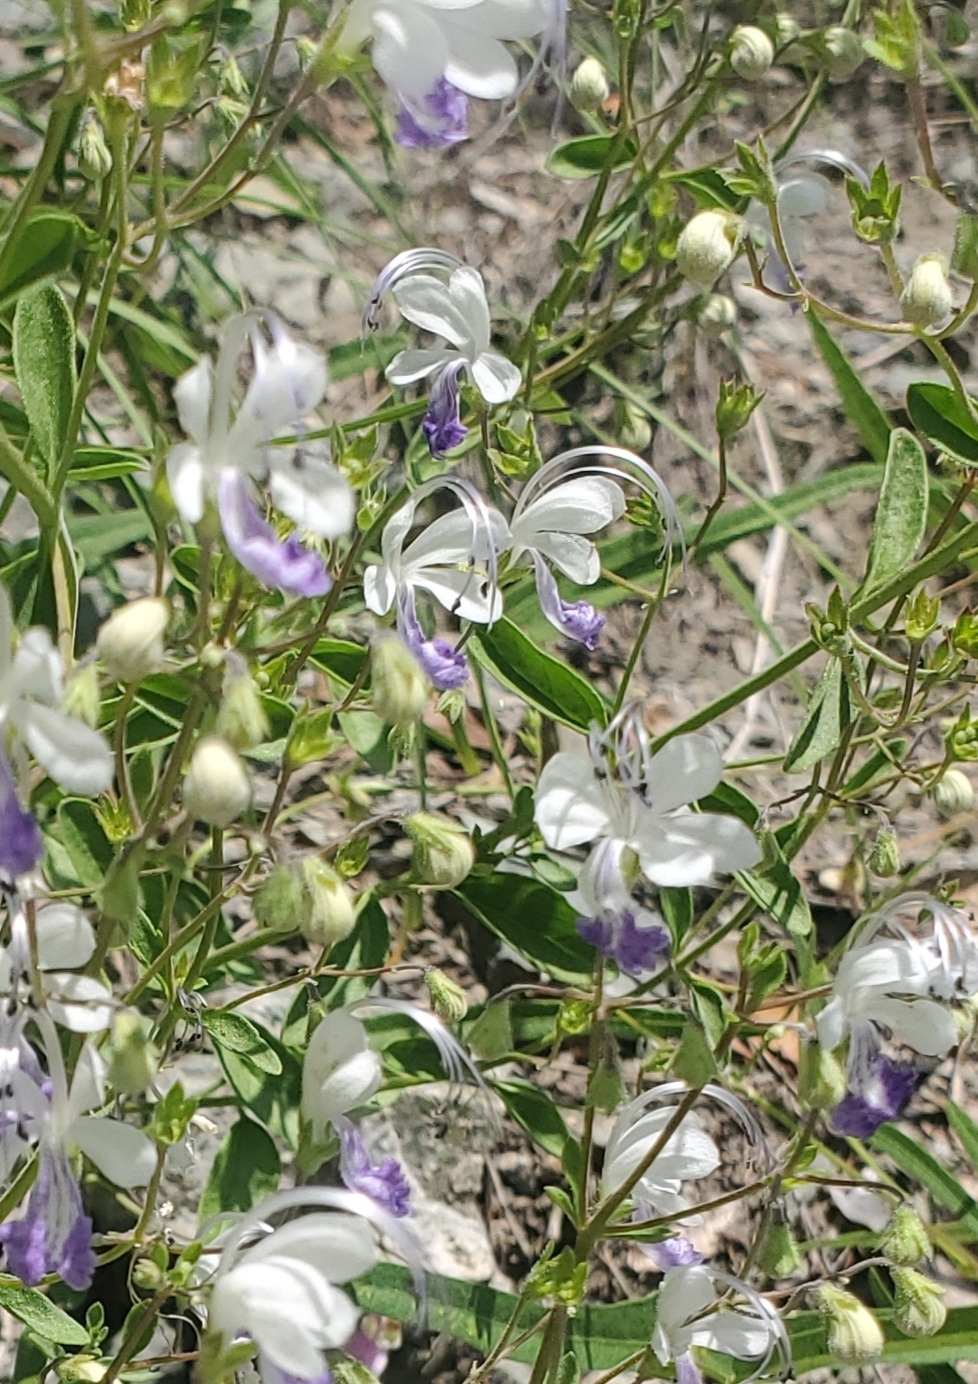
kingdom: Plantae
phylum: Tracheophyta
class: Magnoliopsida
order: Lamiales
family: Lamiaceae
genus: Trichostema
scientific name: Trichostema arizonicum
